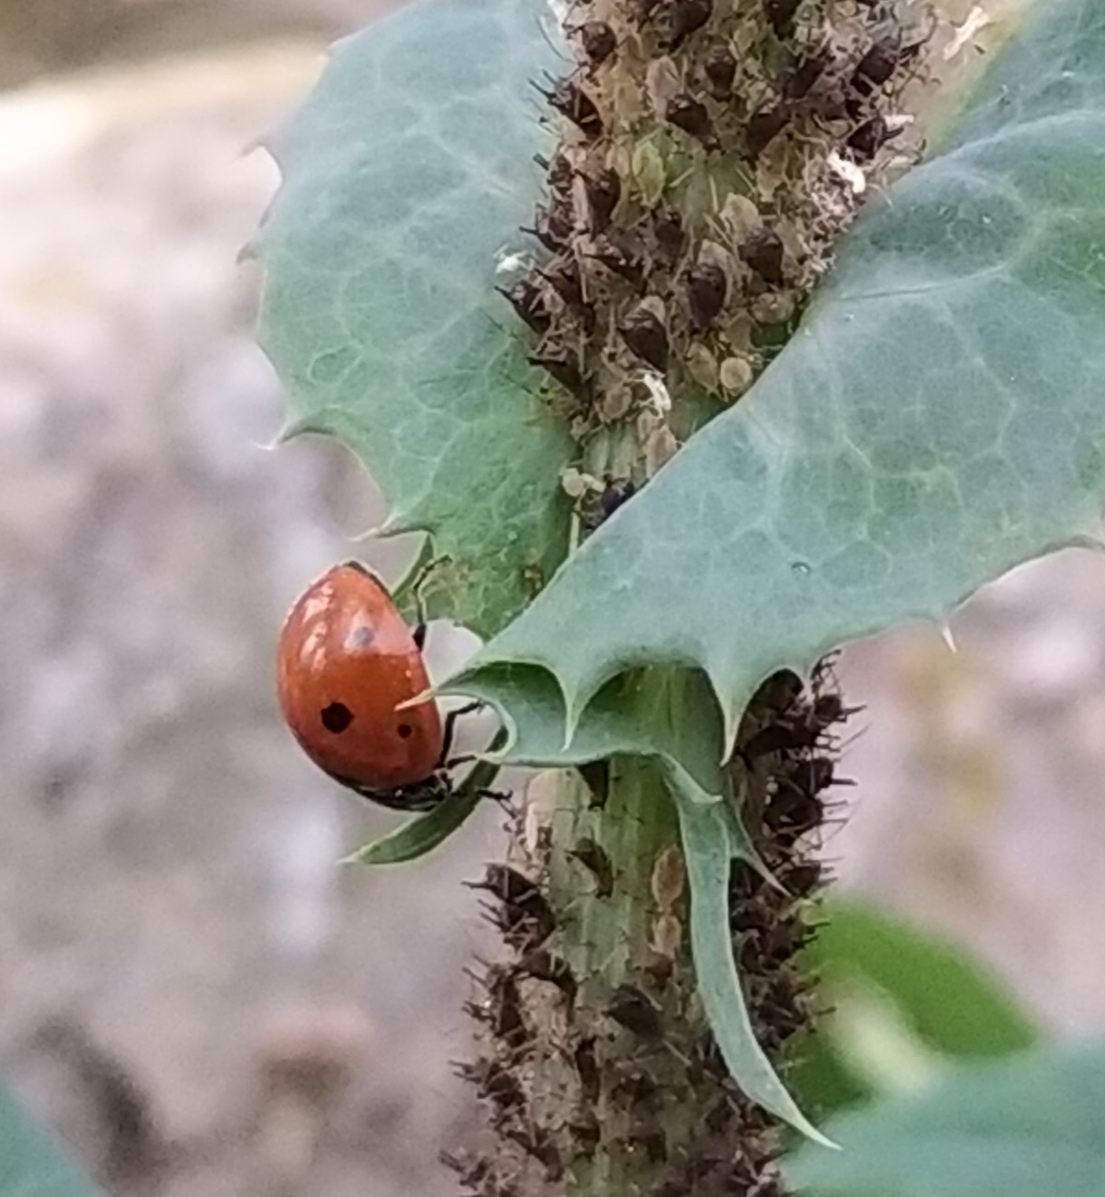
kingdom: Animalia
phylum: Arthropoda
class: Insecta
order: Coleoptera
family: Coccinellidae
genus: Coccinella
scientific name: Coccinella septempunctata
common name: Sevenspotted lady beetle
